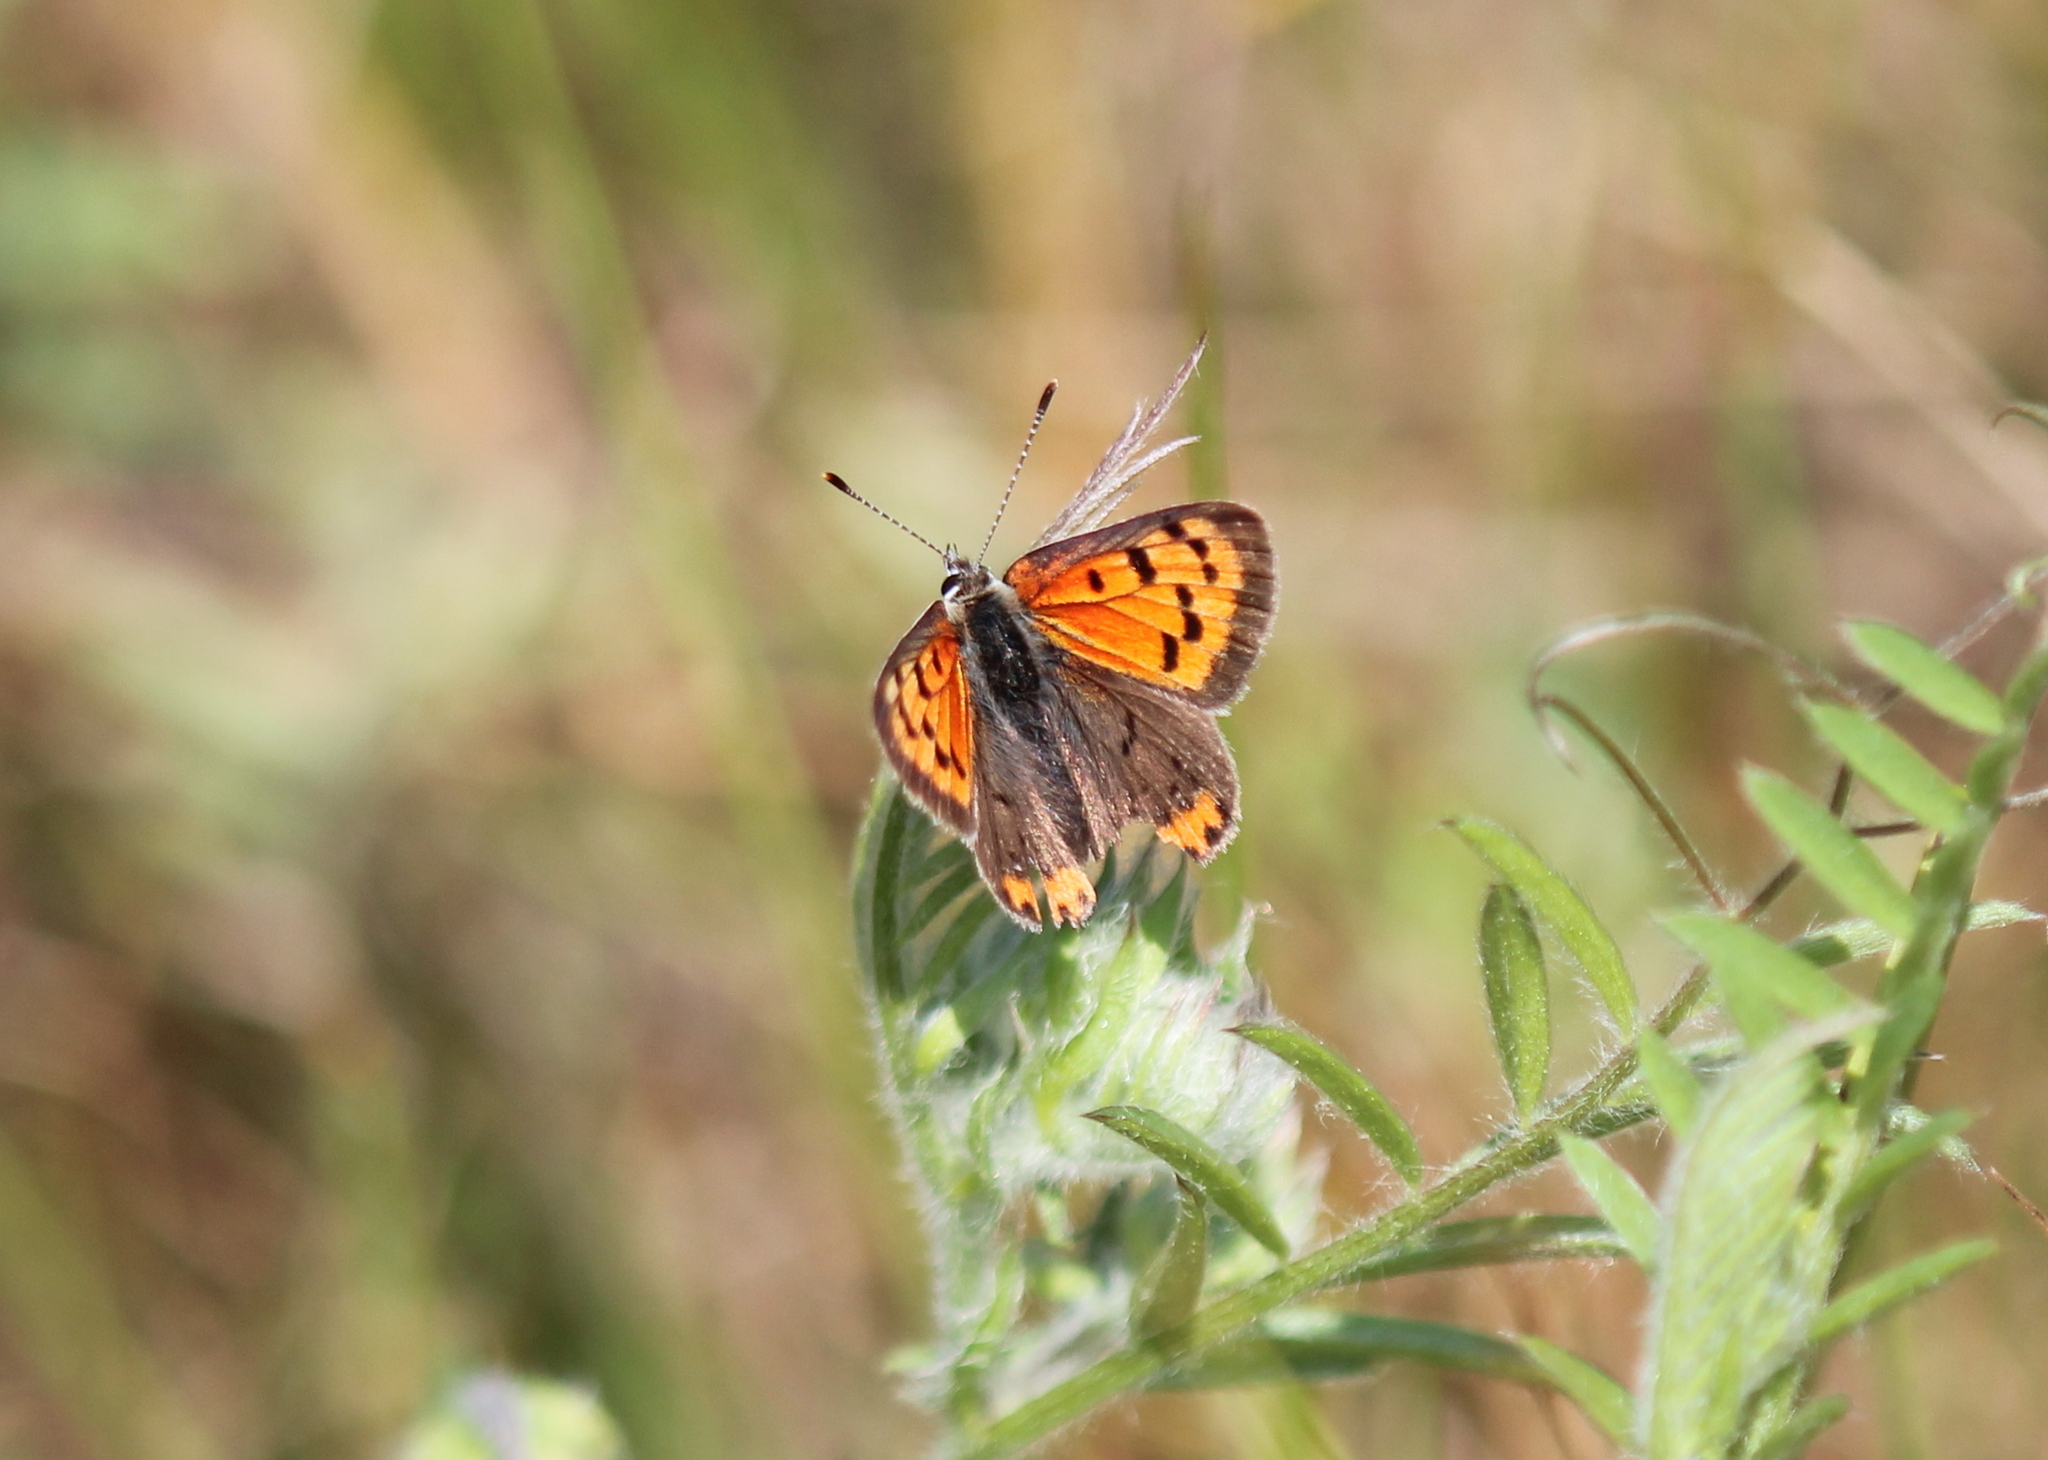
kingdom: Animalia
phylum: Arthropoda
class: Insecta
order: Lepidoptera
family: Lycaenidae
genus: Lycaena
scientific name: Lycaena hypophlaeas
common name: American copper
